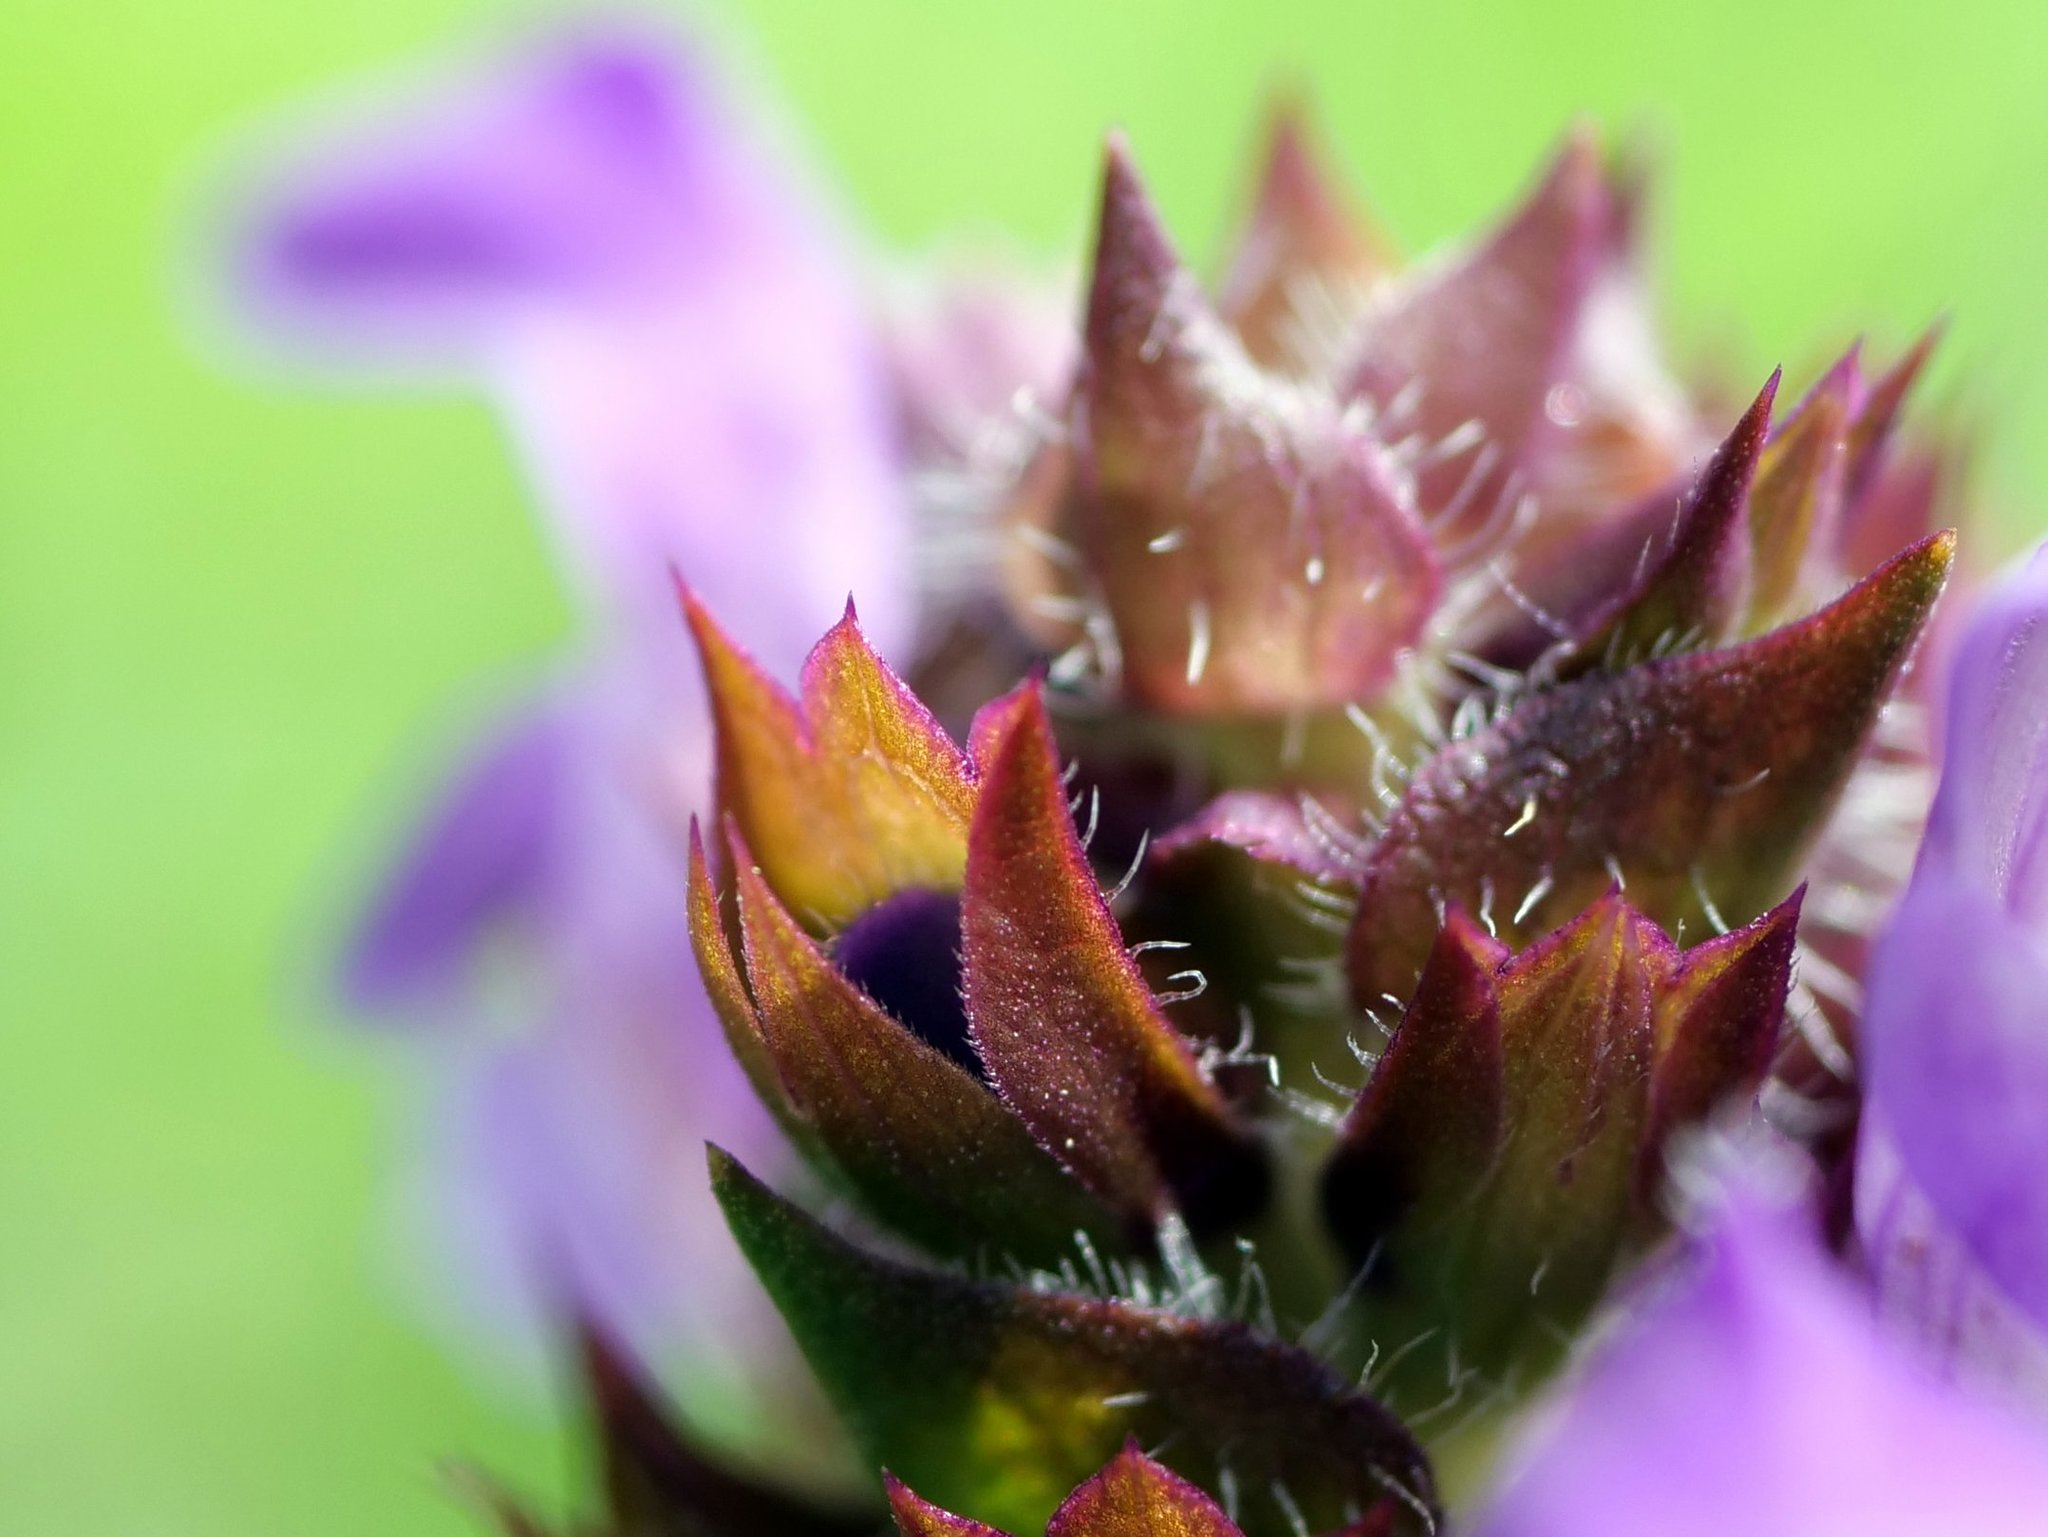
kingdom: Plantae
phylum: Tracheophyta
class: Magnoliopsida
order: Lamiales
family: Lamiaceae
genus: Prunella
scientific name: Prunella grandiflora
